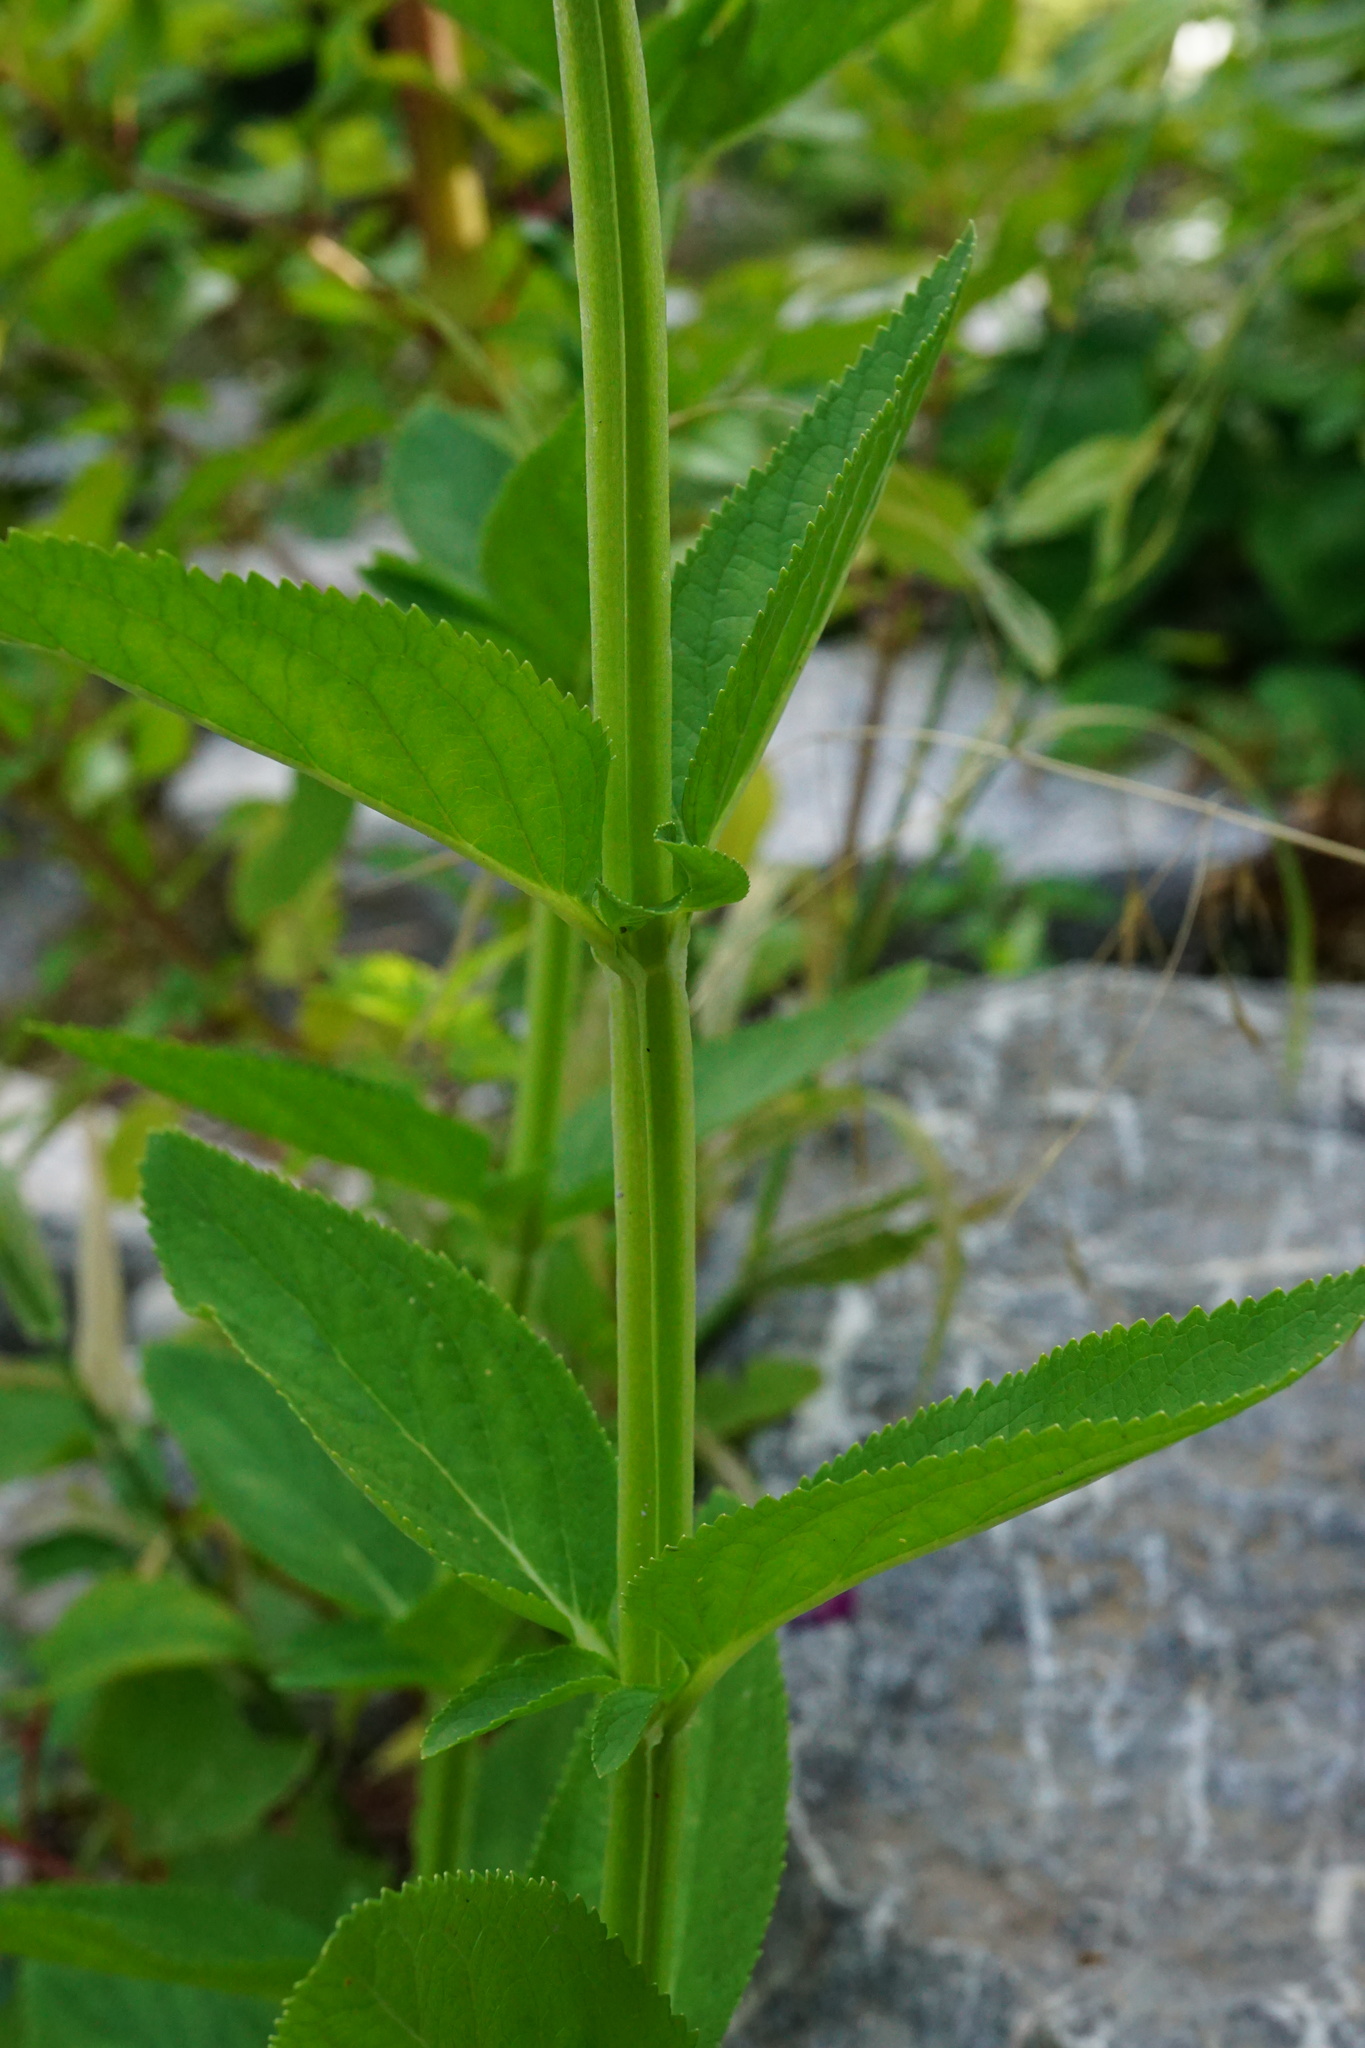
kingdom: Plantae
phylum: Tracheophyta
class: Magnoliopsida
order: Lamiales
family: Scrophulariaceae
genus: Scrophularia
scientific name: Scrophularia umbrosa
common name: Green figwort
